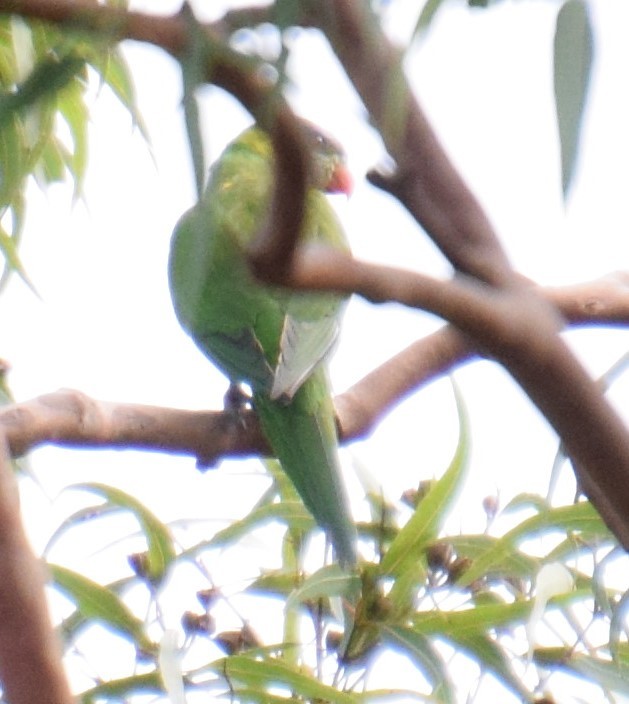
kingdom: Animalia
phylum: Chordata
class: Aves
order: Psittaciformes
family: Psittacidae
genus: Trichoglossus
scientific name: Trichoglossus haematodus
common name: Coconut lorikeet
